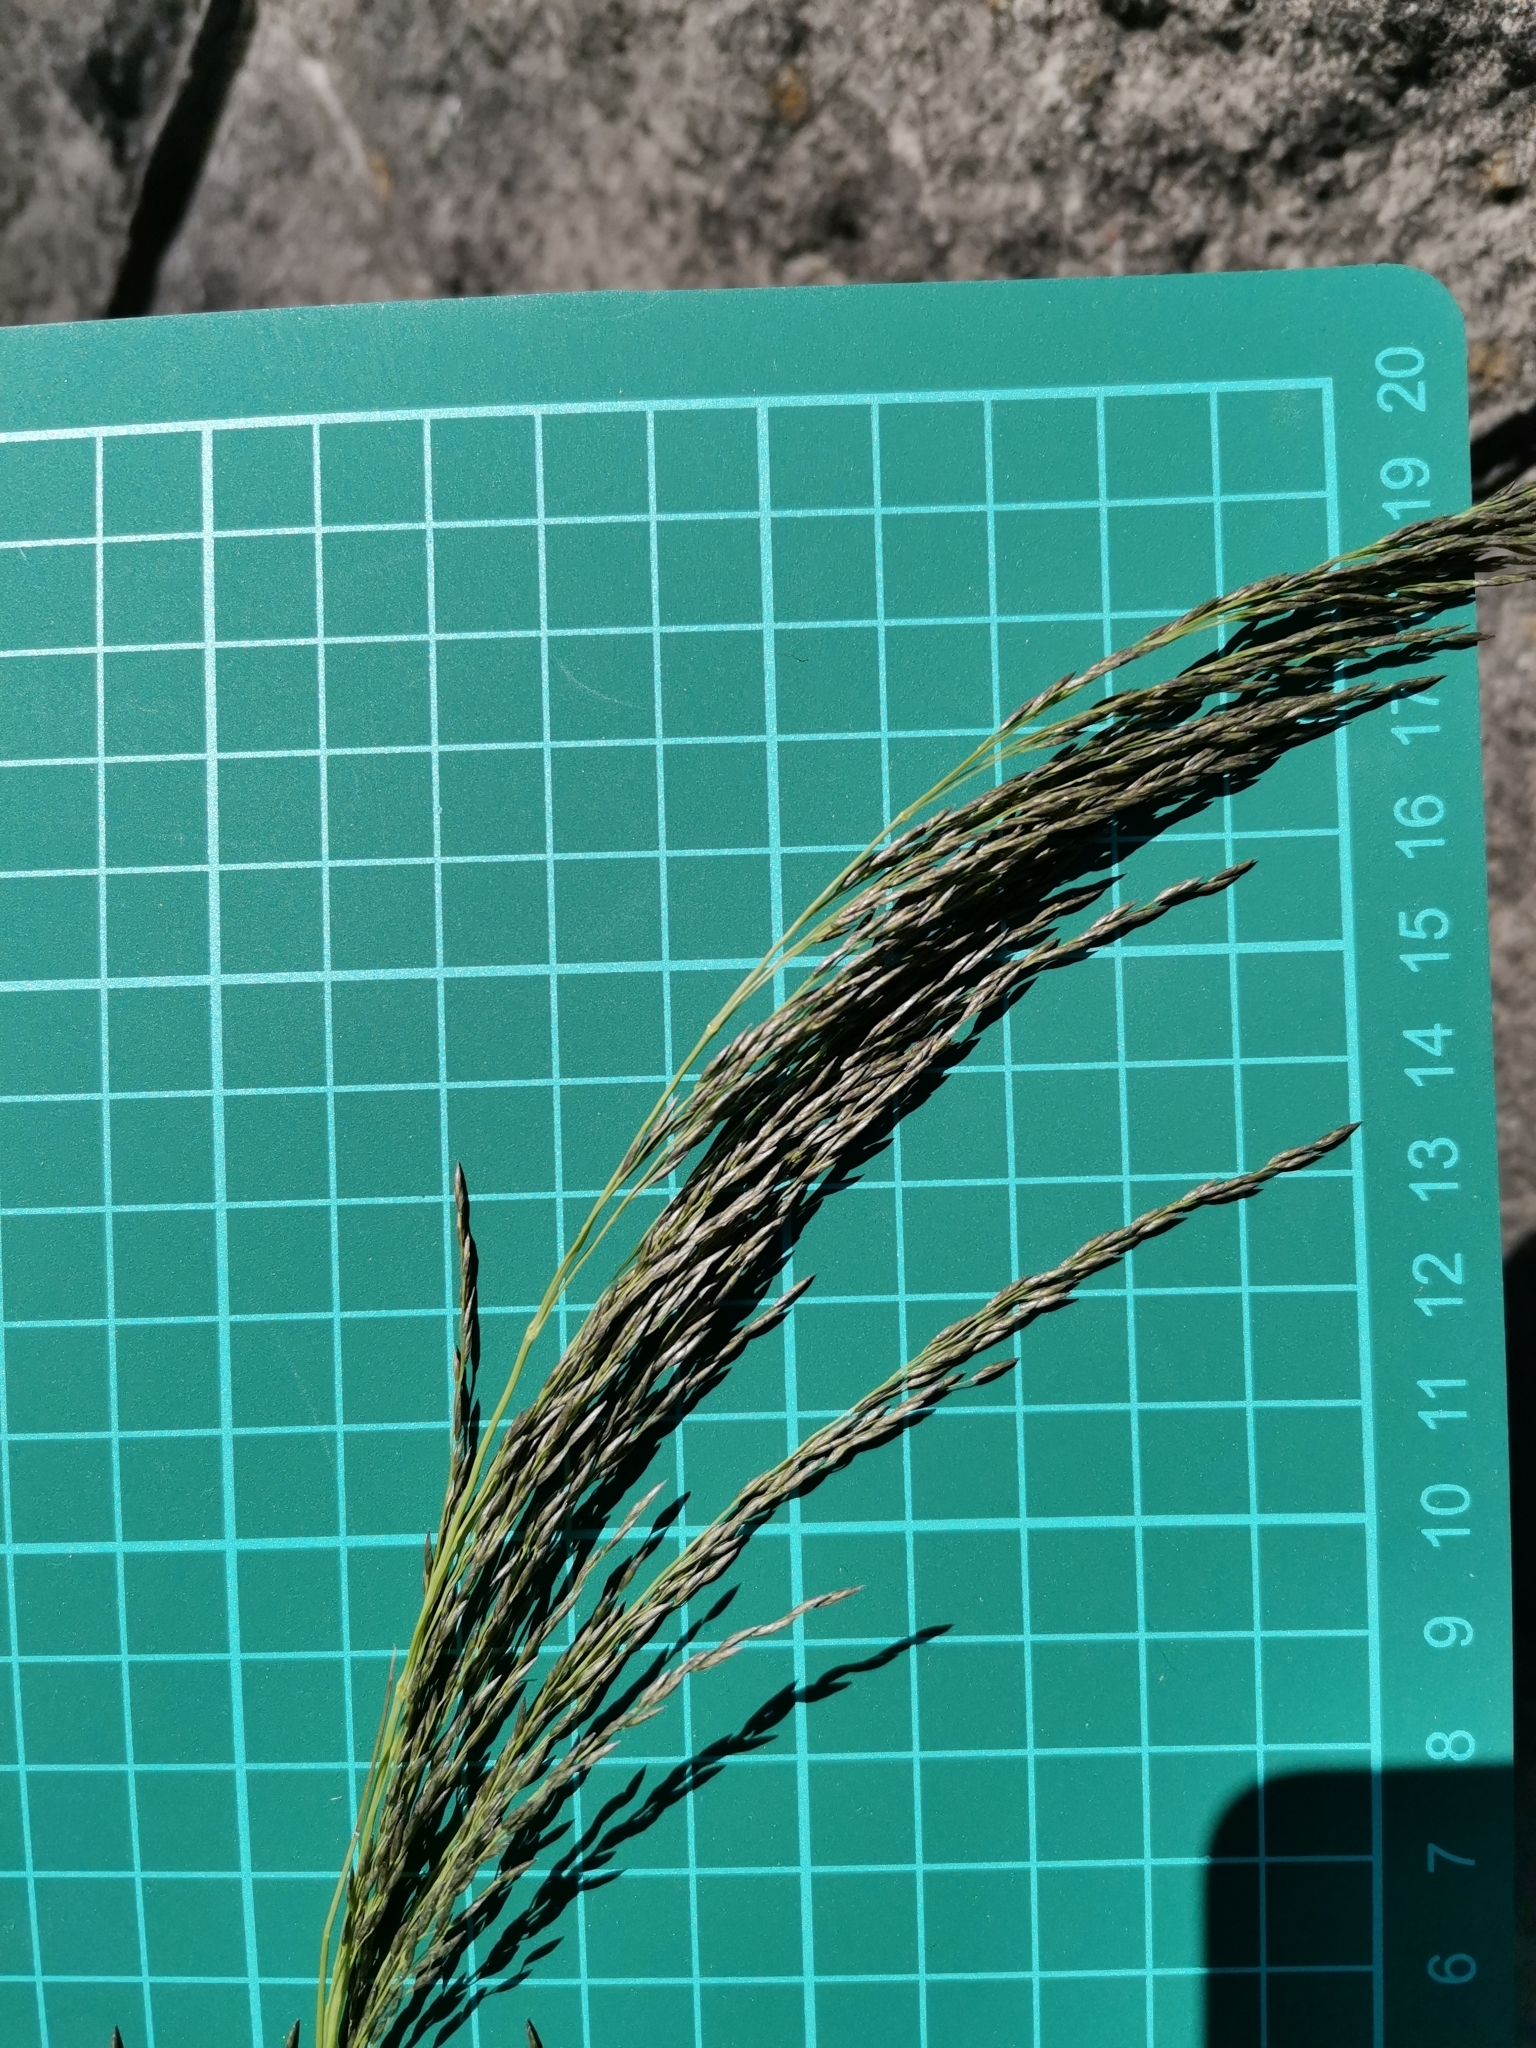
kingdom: Plantae
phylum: Tracheophyta
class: Liliopsida
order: Poales
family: Poaceae
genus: Eragrostis
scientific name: Eragrostis curvula
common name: African love-grass
